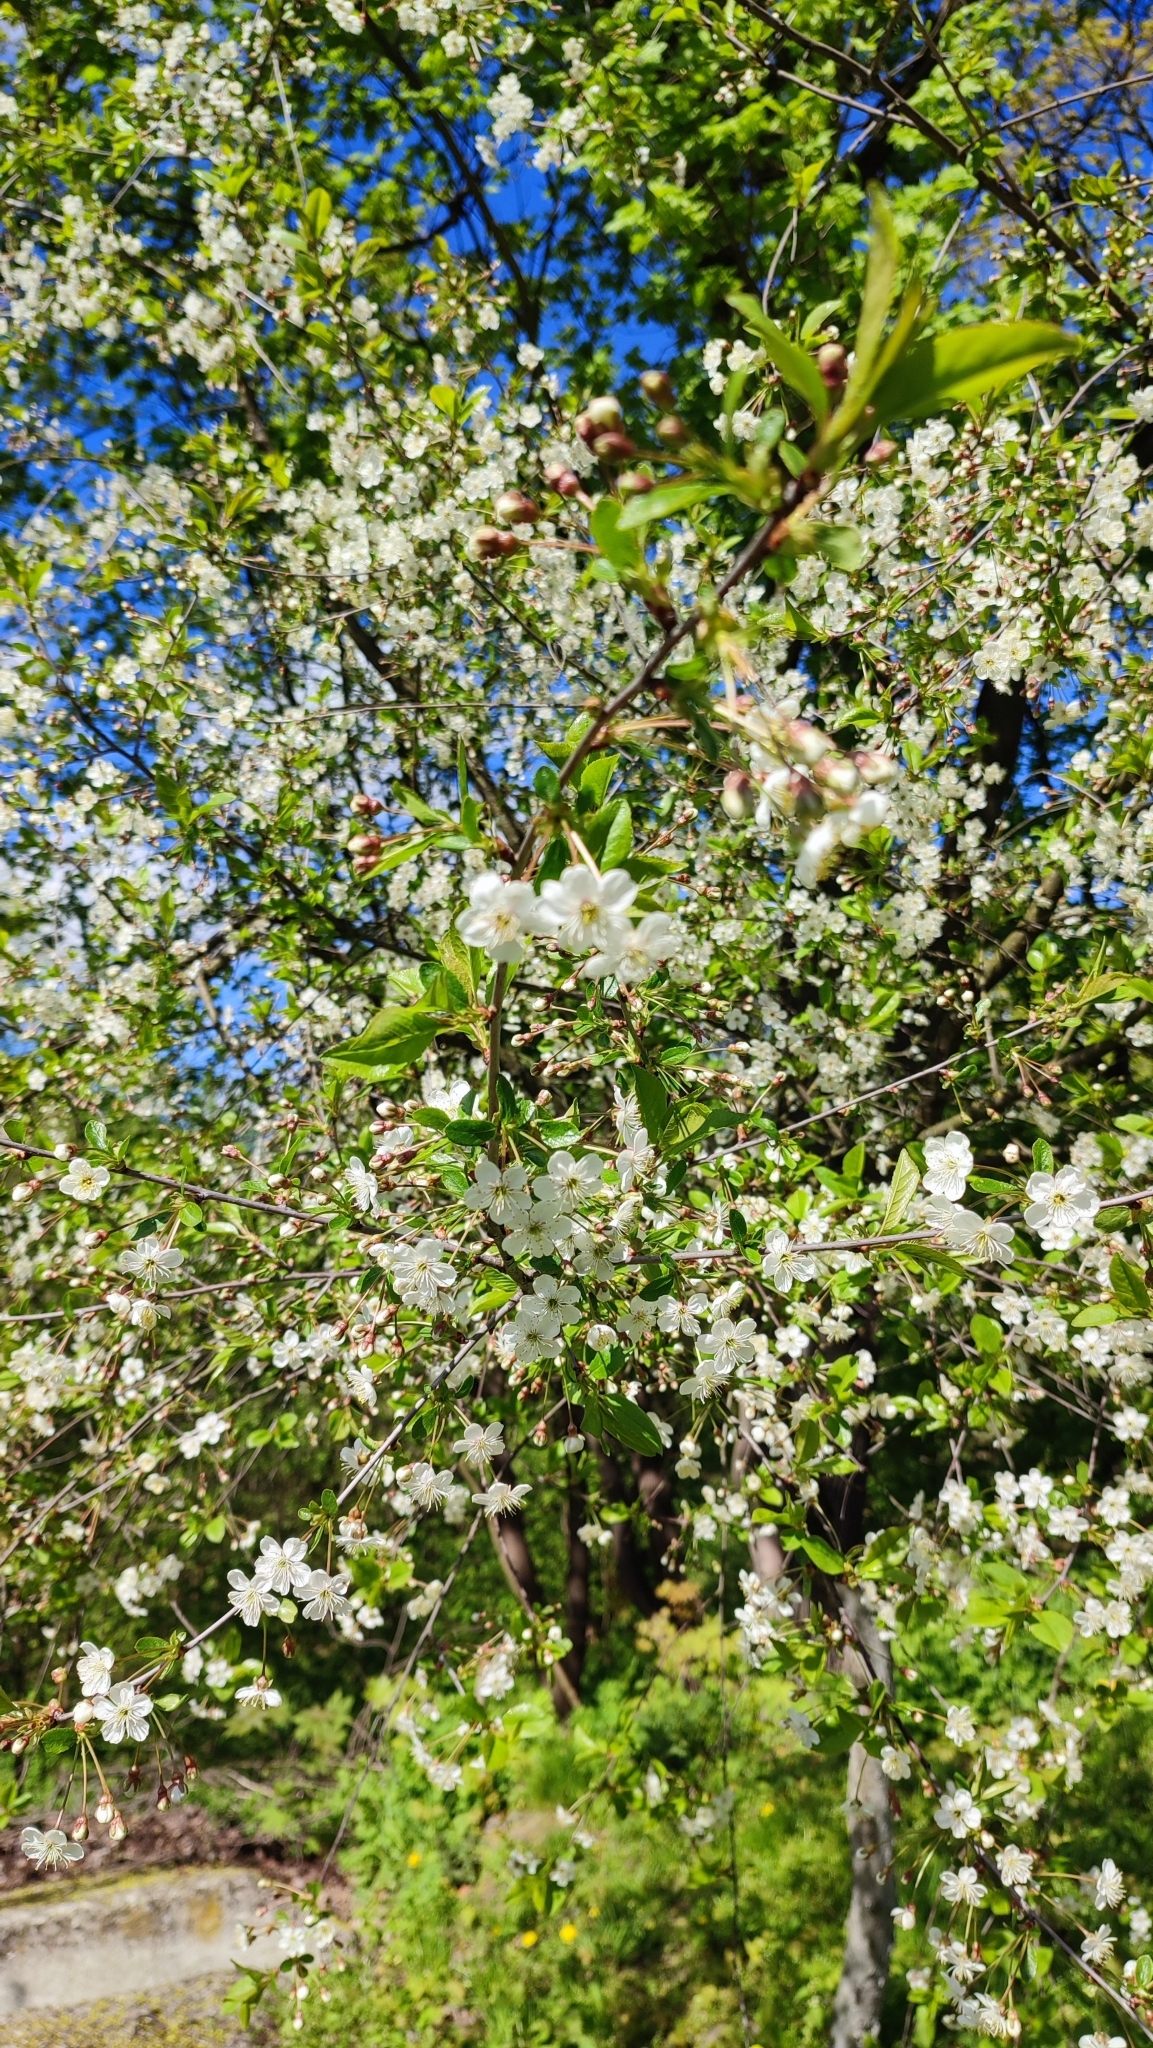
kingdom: Plantae
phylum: Tracheophyta
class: Magnoliopsida
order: Rosales
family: Rosaceae
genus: Prunus
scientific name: Prunus cerasus
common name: Morello cherry
